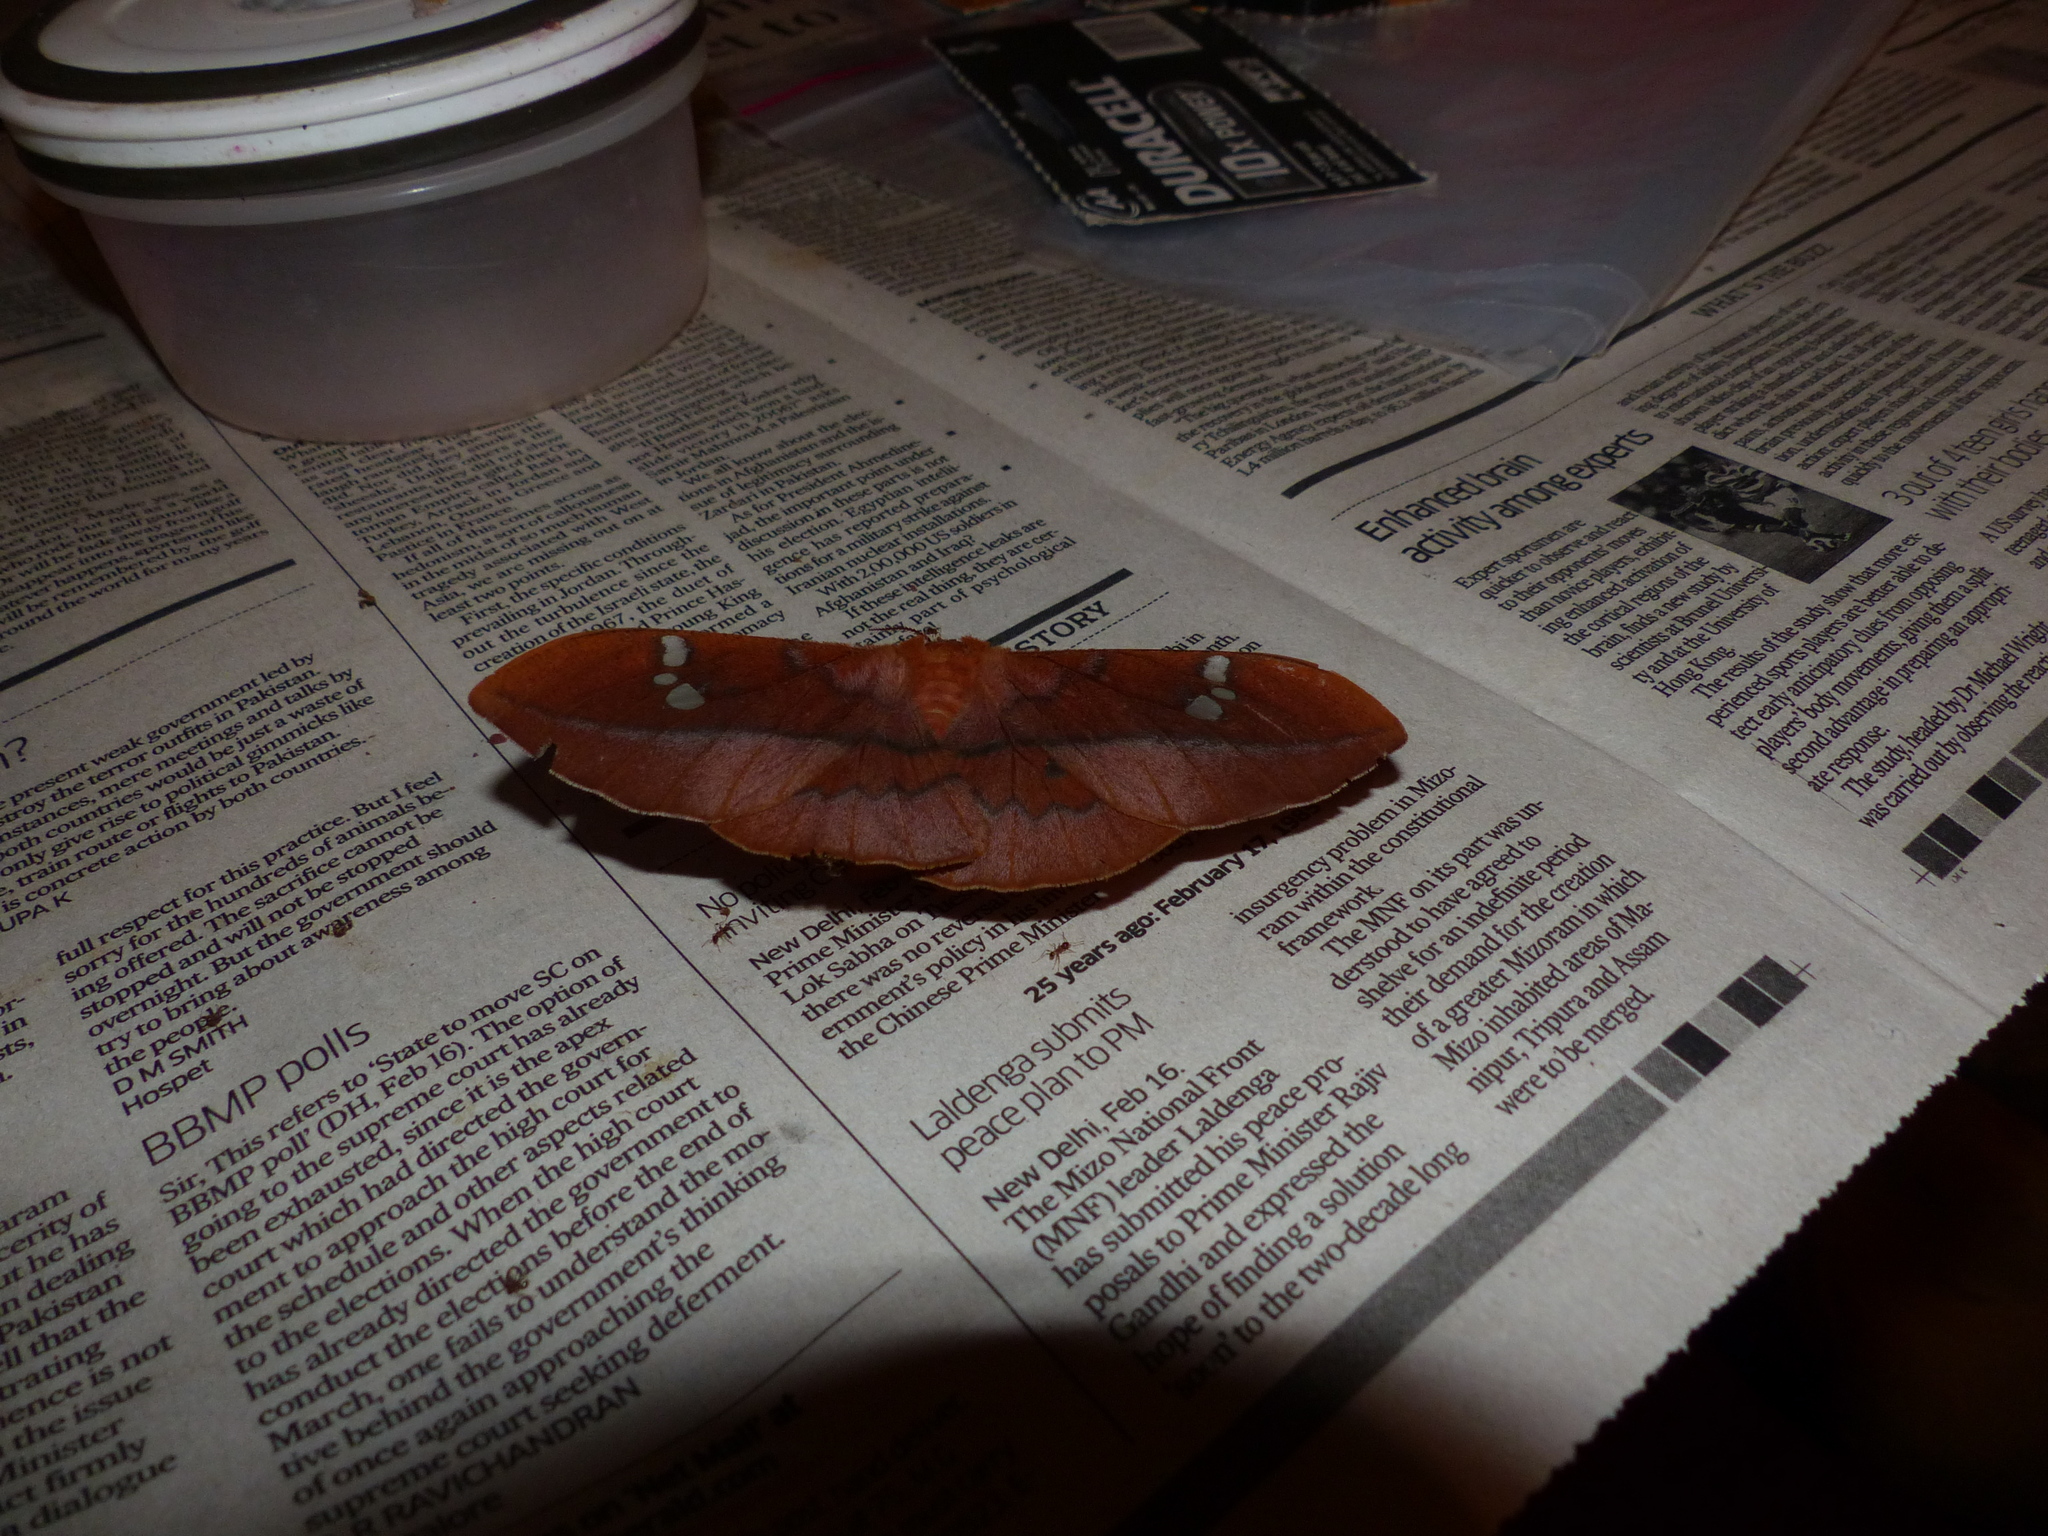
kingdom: Animalia
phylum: Arthropoda
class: Insecta
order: Lepidoptera
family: Saturniidae
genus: Cricula
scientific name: Cricula trifenestrata
